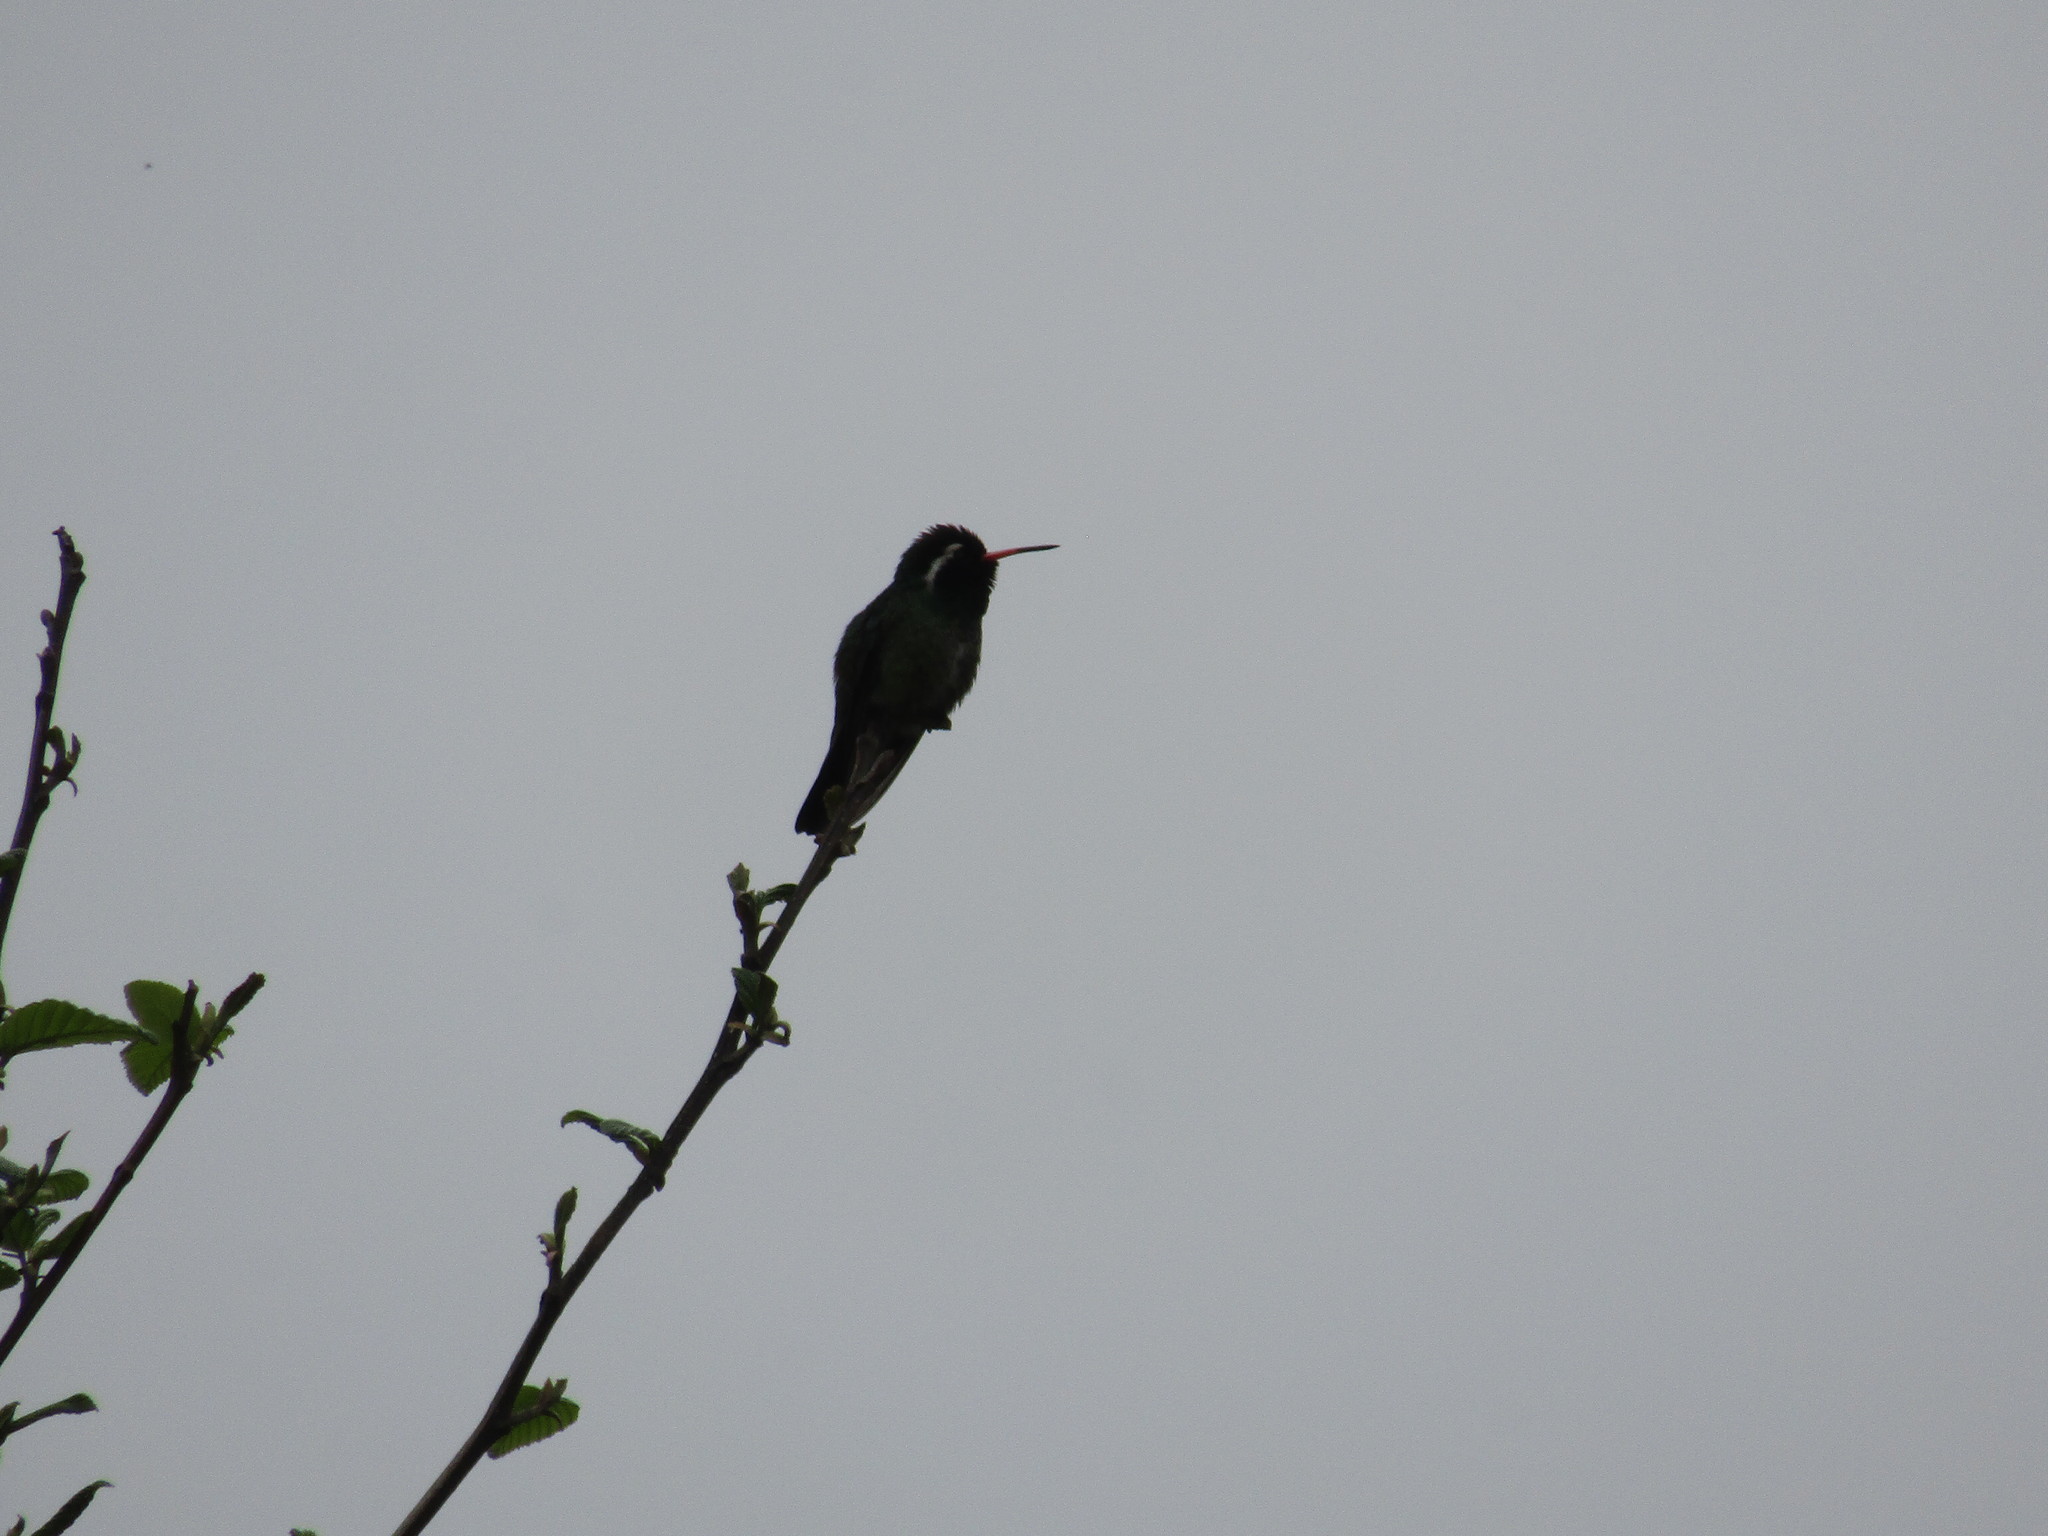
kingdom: Animalia
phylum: Chordata
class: Aves
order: Apodiformes
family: Trochilidae
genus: Basilinna
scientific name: Basilinna leucotis
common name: White-eared hummingbird
